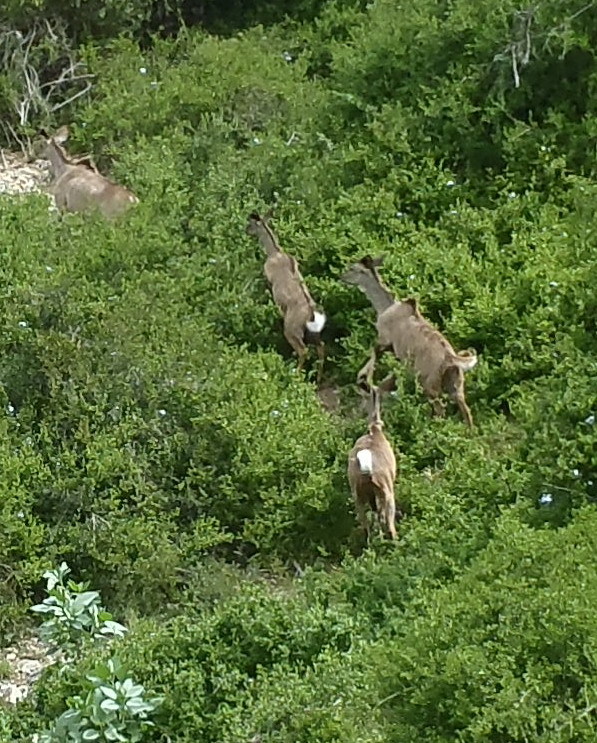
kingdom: Animalia
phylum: Chordata
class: Mammalia
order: Artiodactyla
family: Bovidae
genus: Tragelaphus
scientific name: Tragelaphus strepsiceros
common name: Greater kudu
